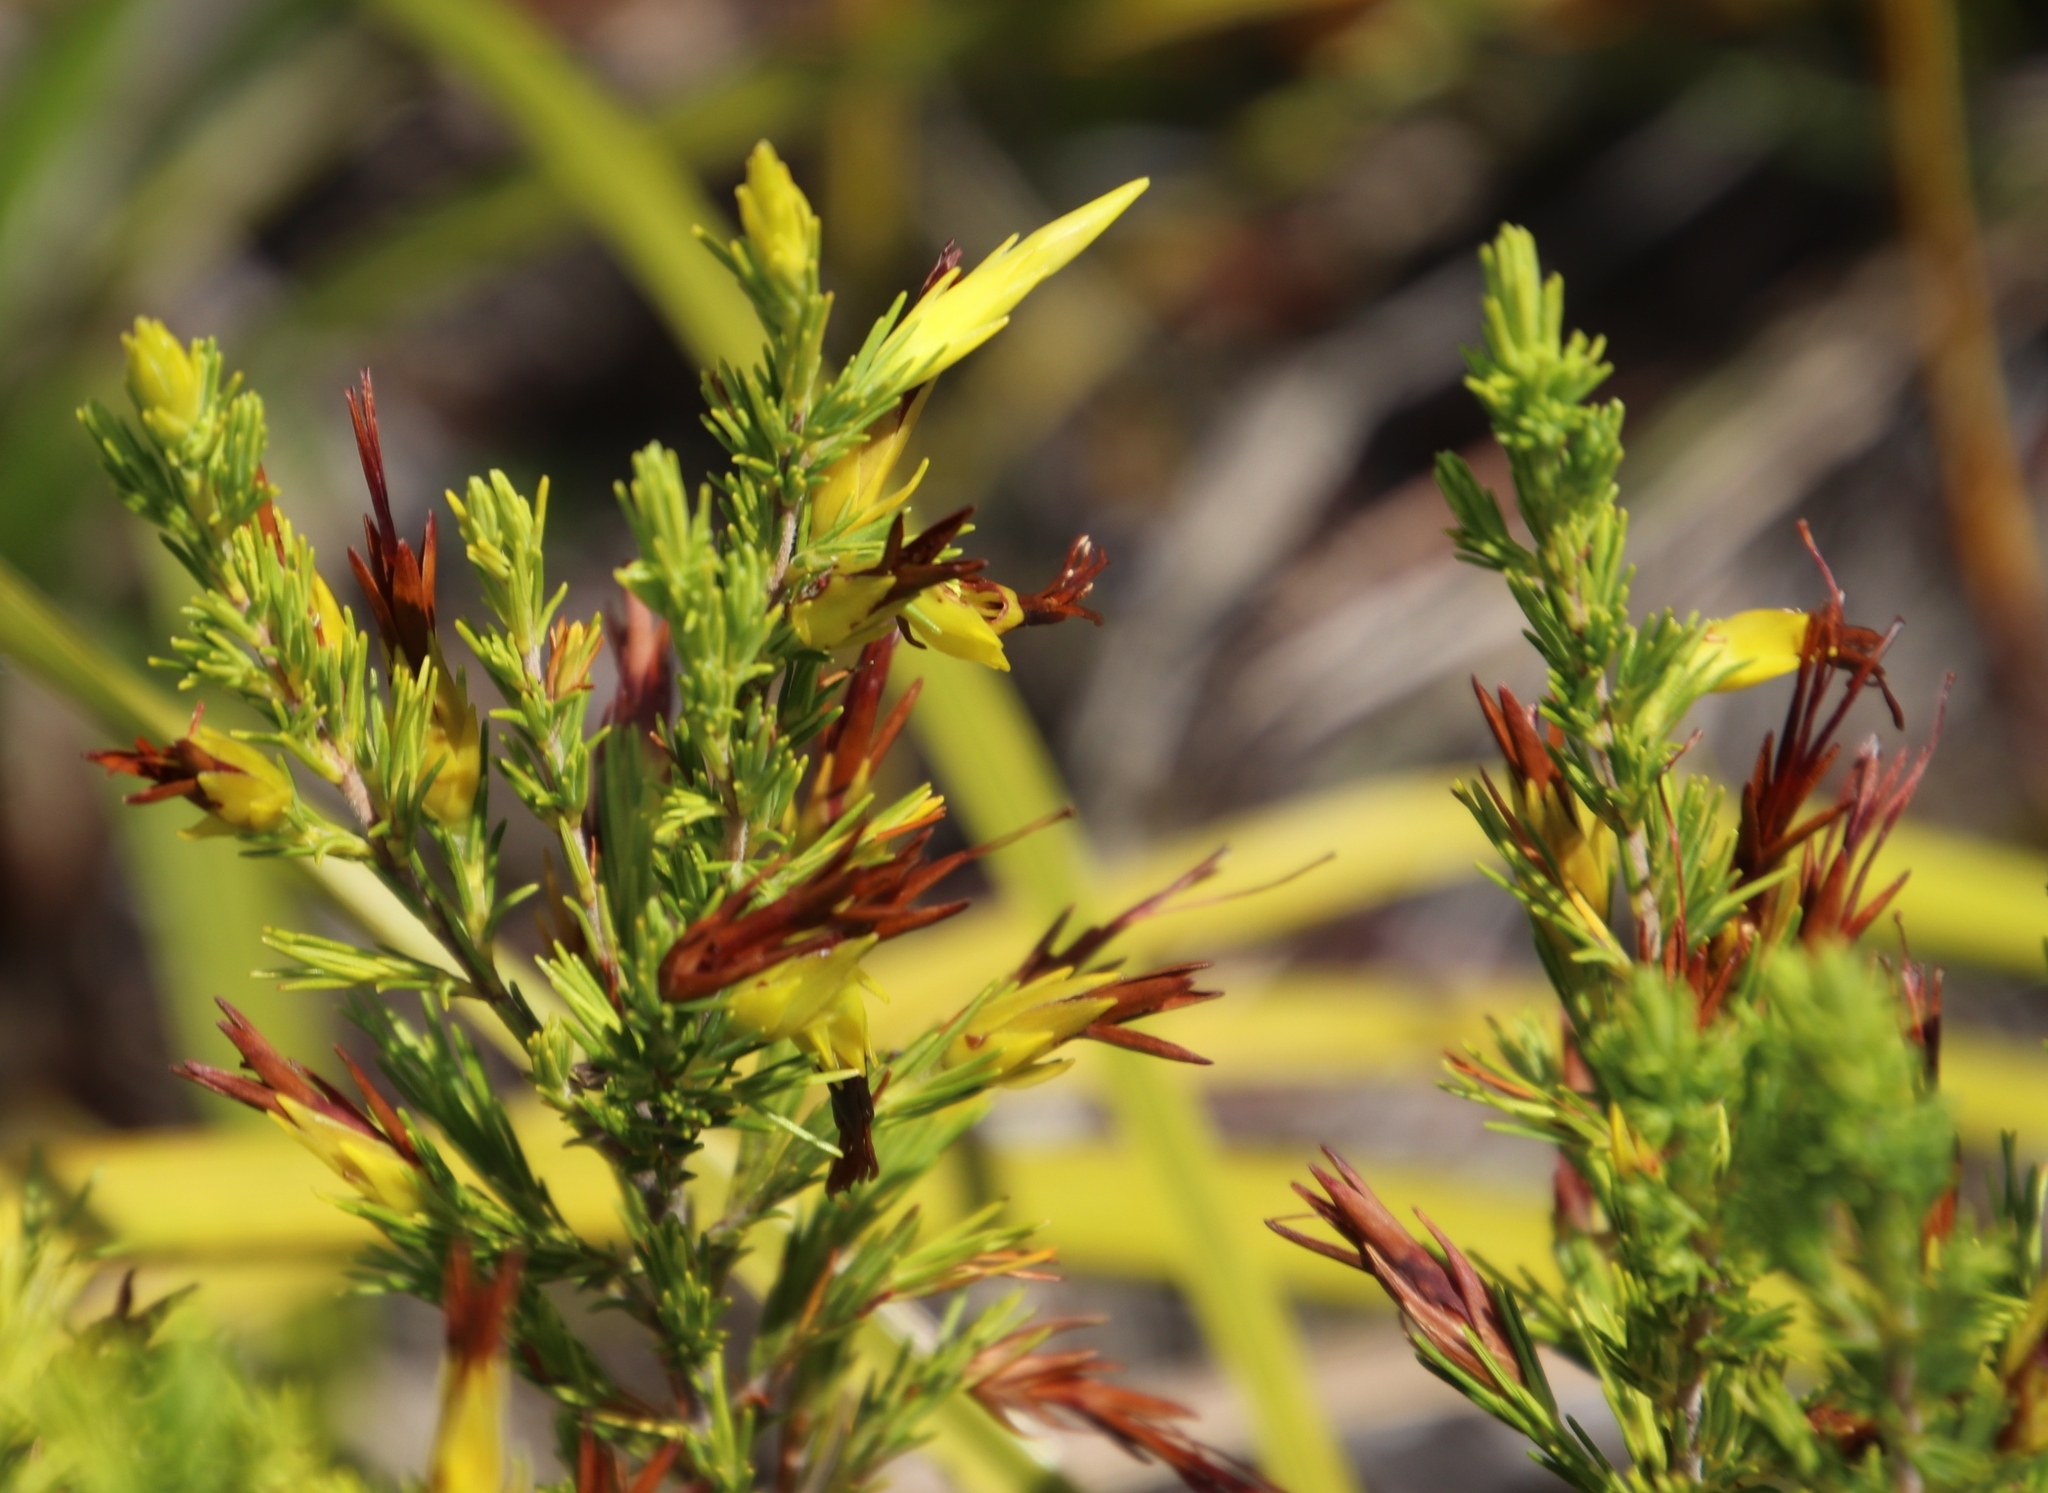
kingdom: Plantae
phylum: Tracheophyta
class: Magnoliopsida
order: Ericales
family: Ericaceae
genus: Erica
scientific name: Erica melastoma
